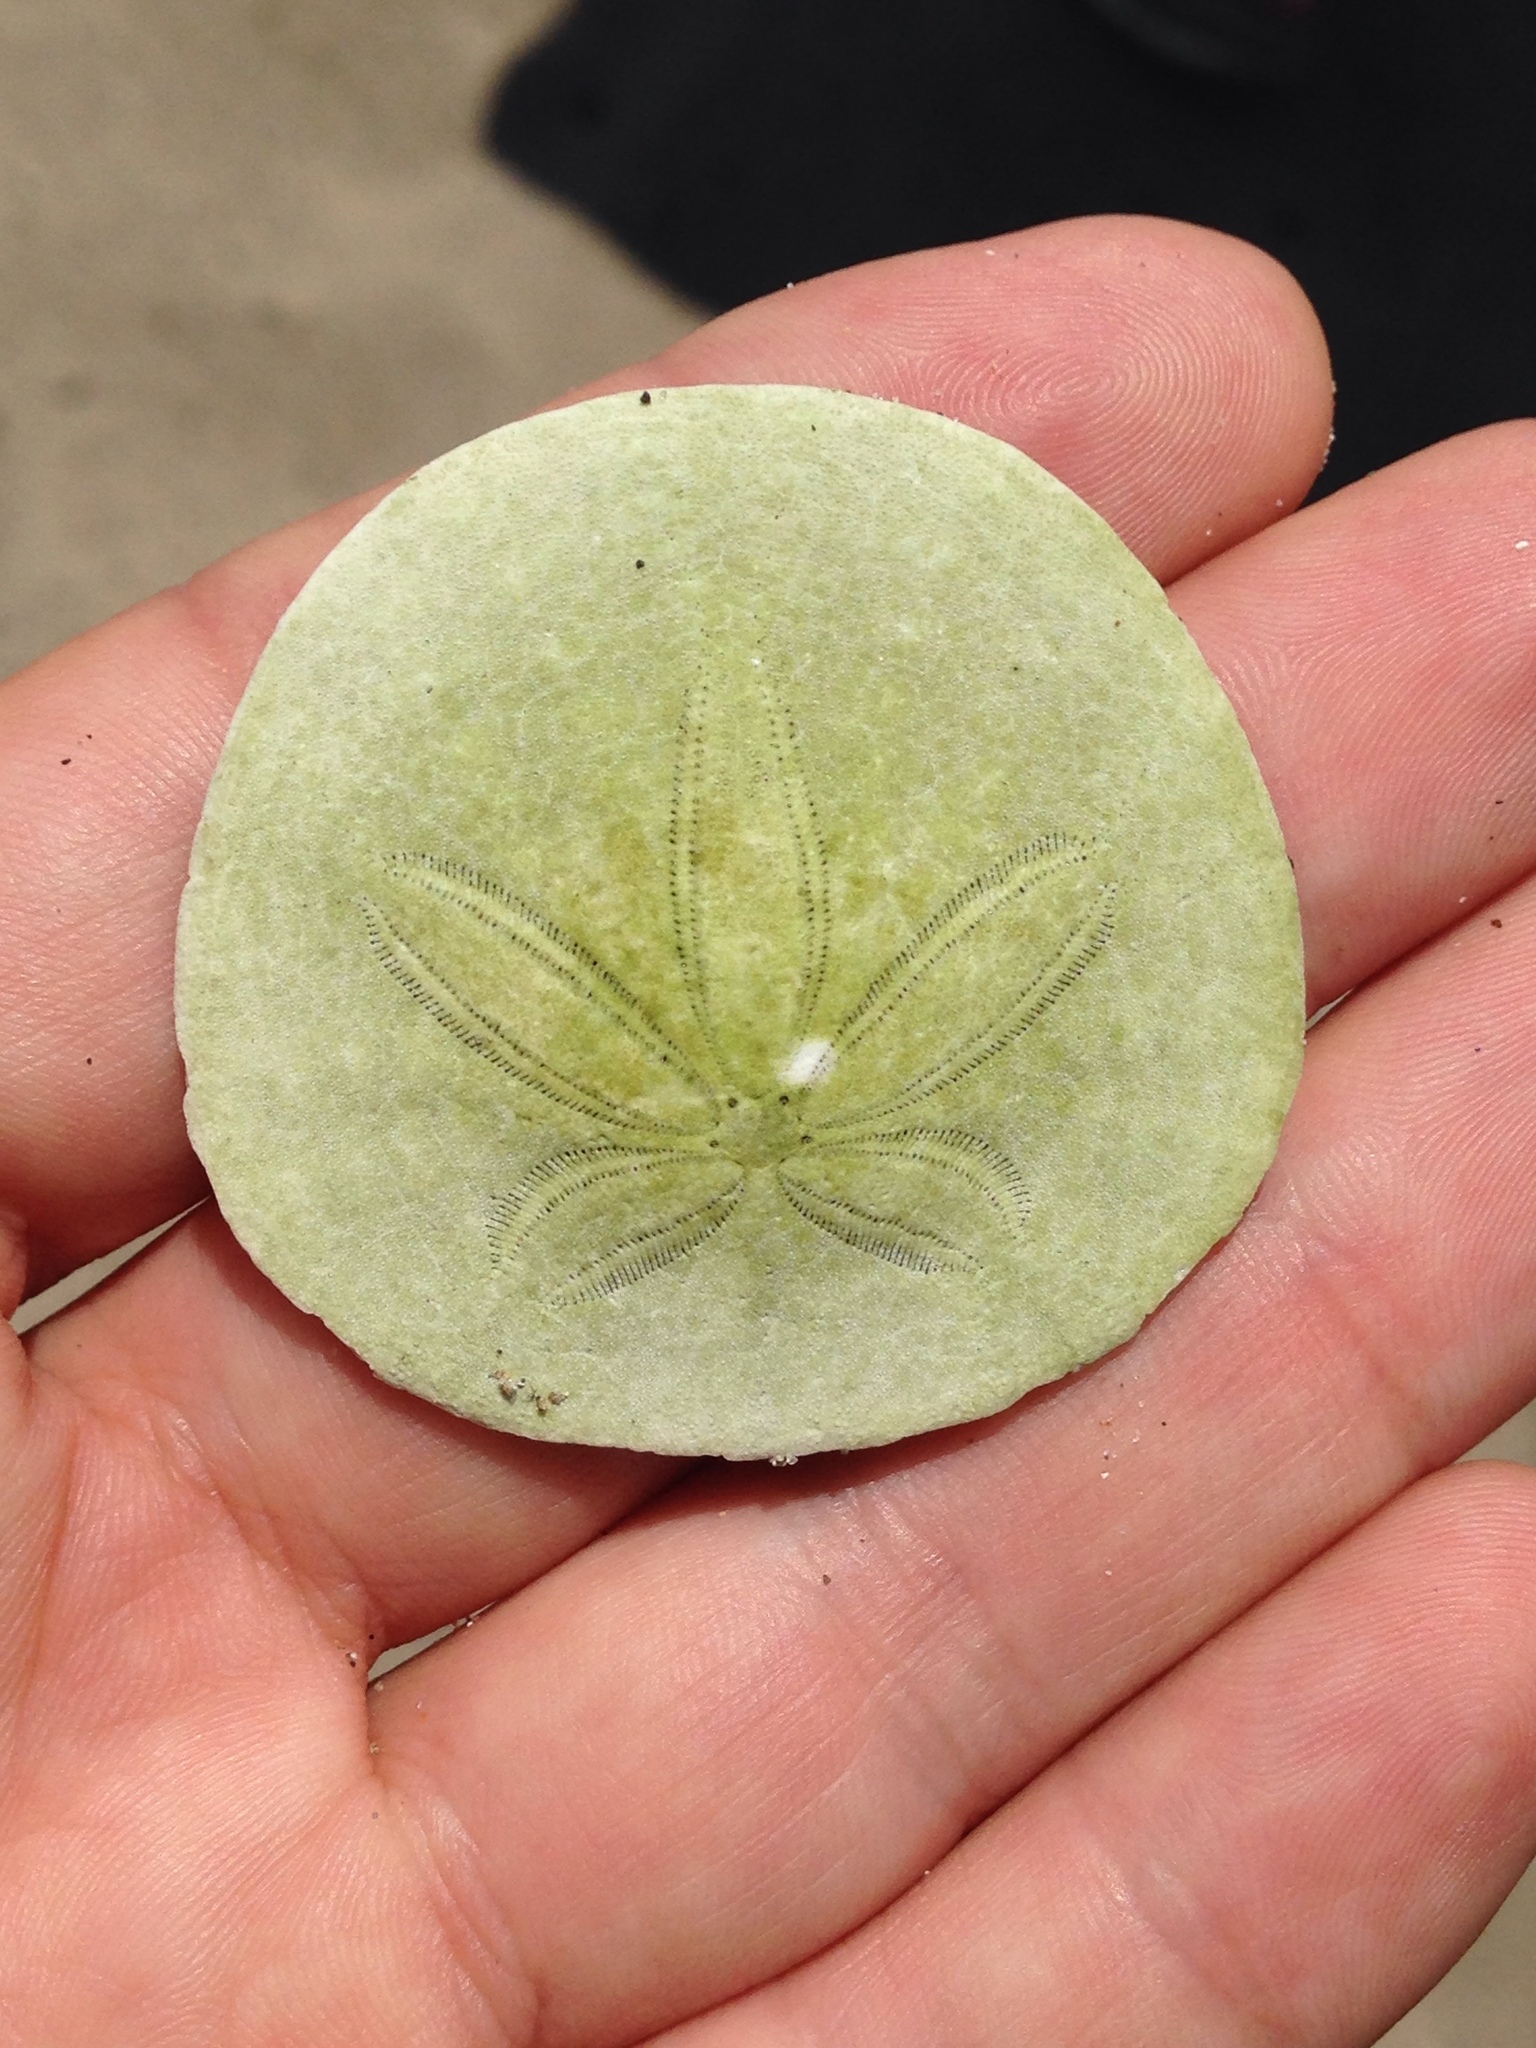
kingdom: Animalia
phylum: Echinodermata
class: Echinoidea
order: Echinolampadacea
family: Dendrasteridae
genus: Dendraster
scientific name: Dendraster excentricus
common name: Eccentric sand dollar sea urchin
